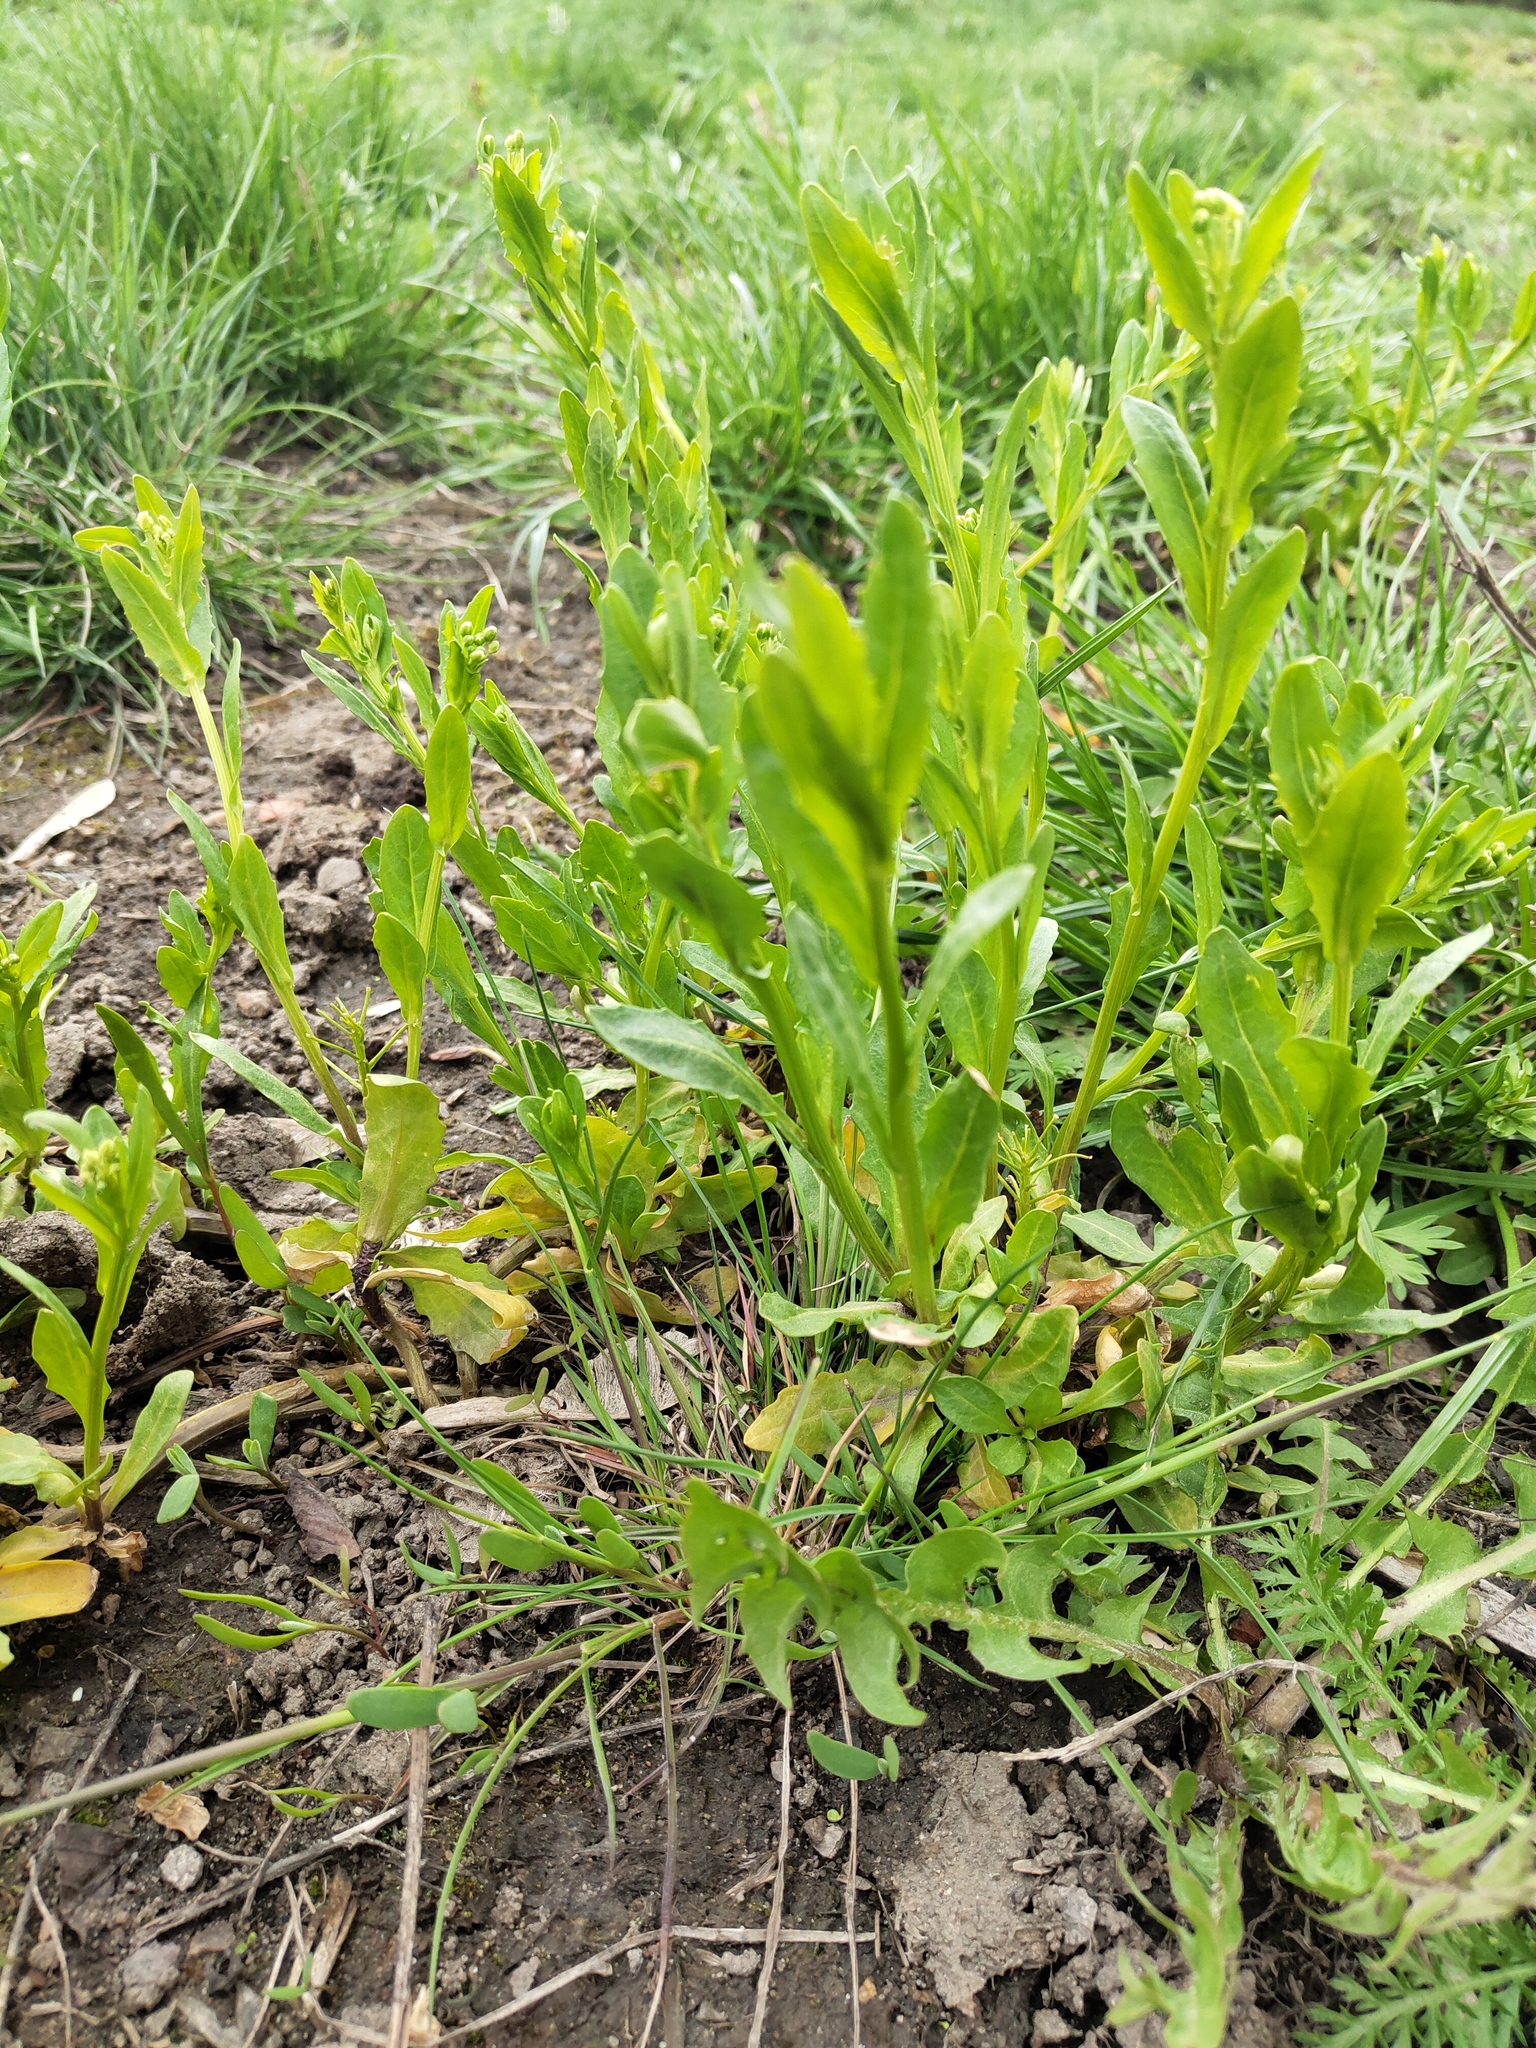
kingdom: Plantae
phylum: Tracheophyta
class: Magnoliopsida
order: Brassicales
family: Brassicaceae
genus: Thlaspi
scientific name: Thlaspi arvense
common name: Field pennycress
